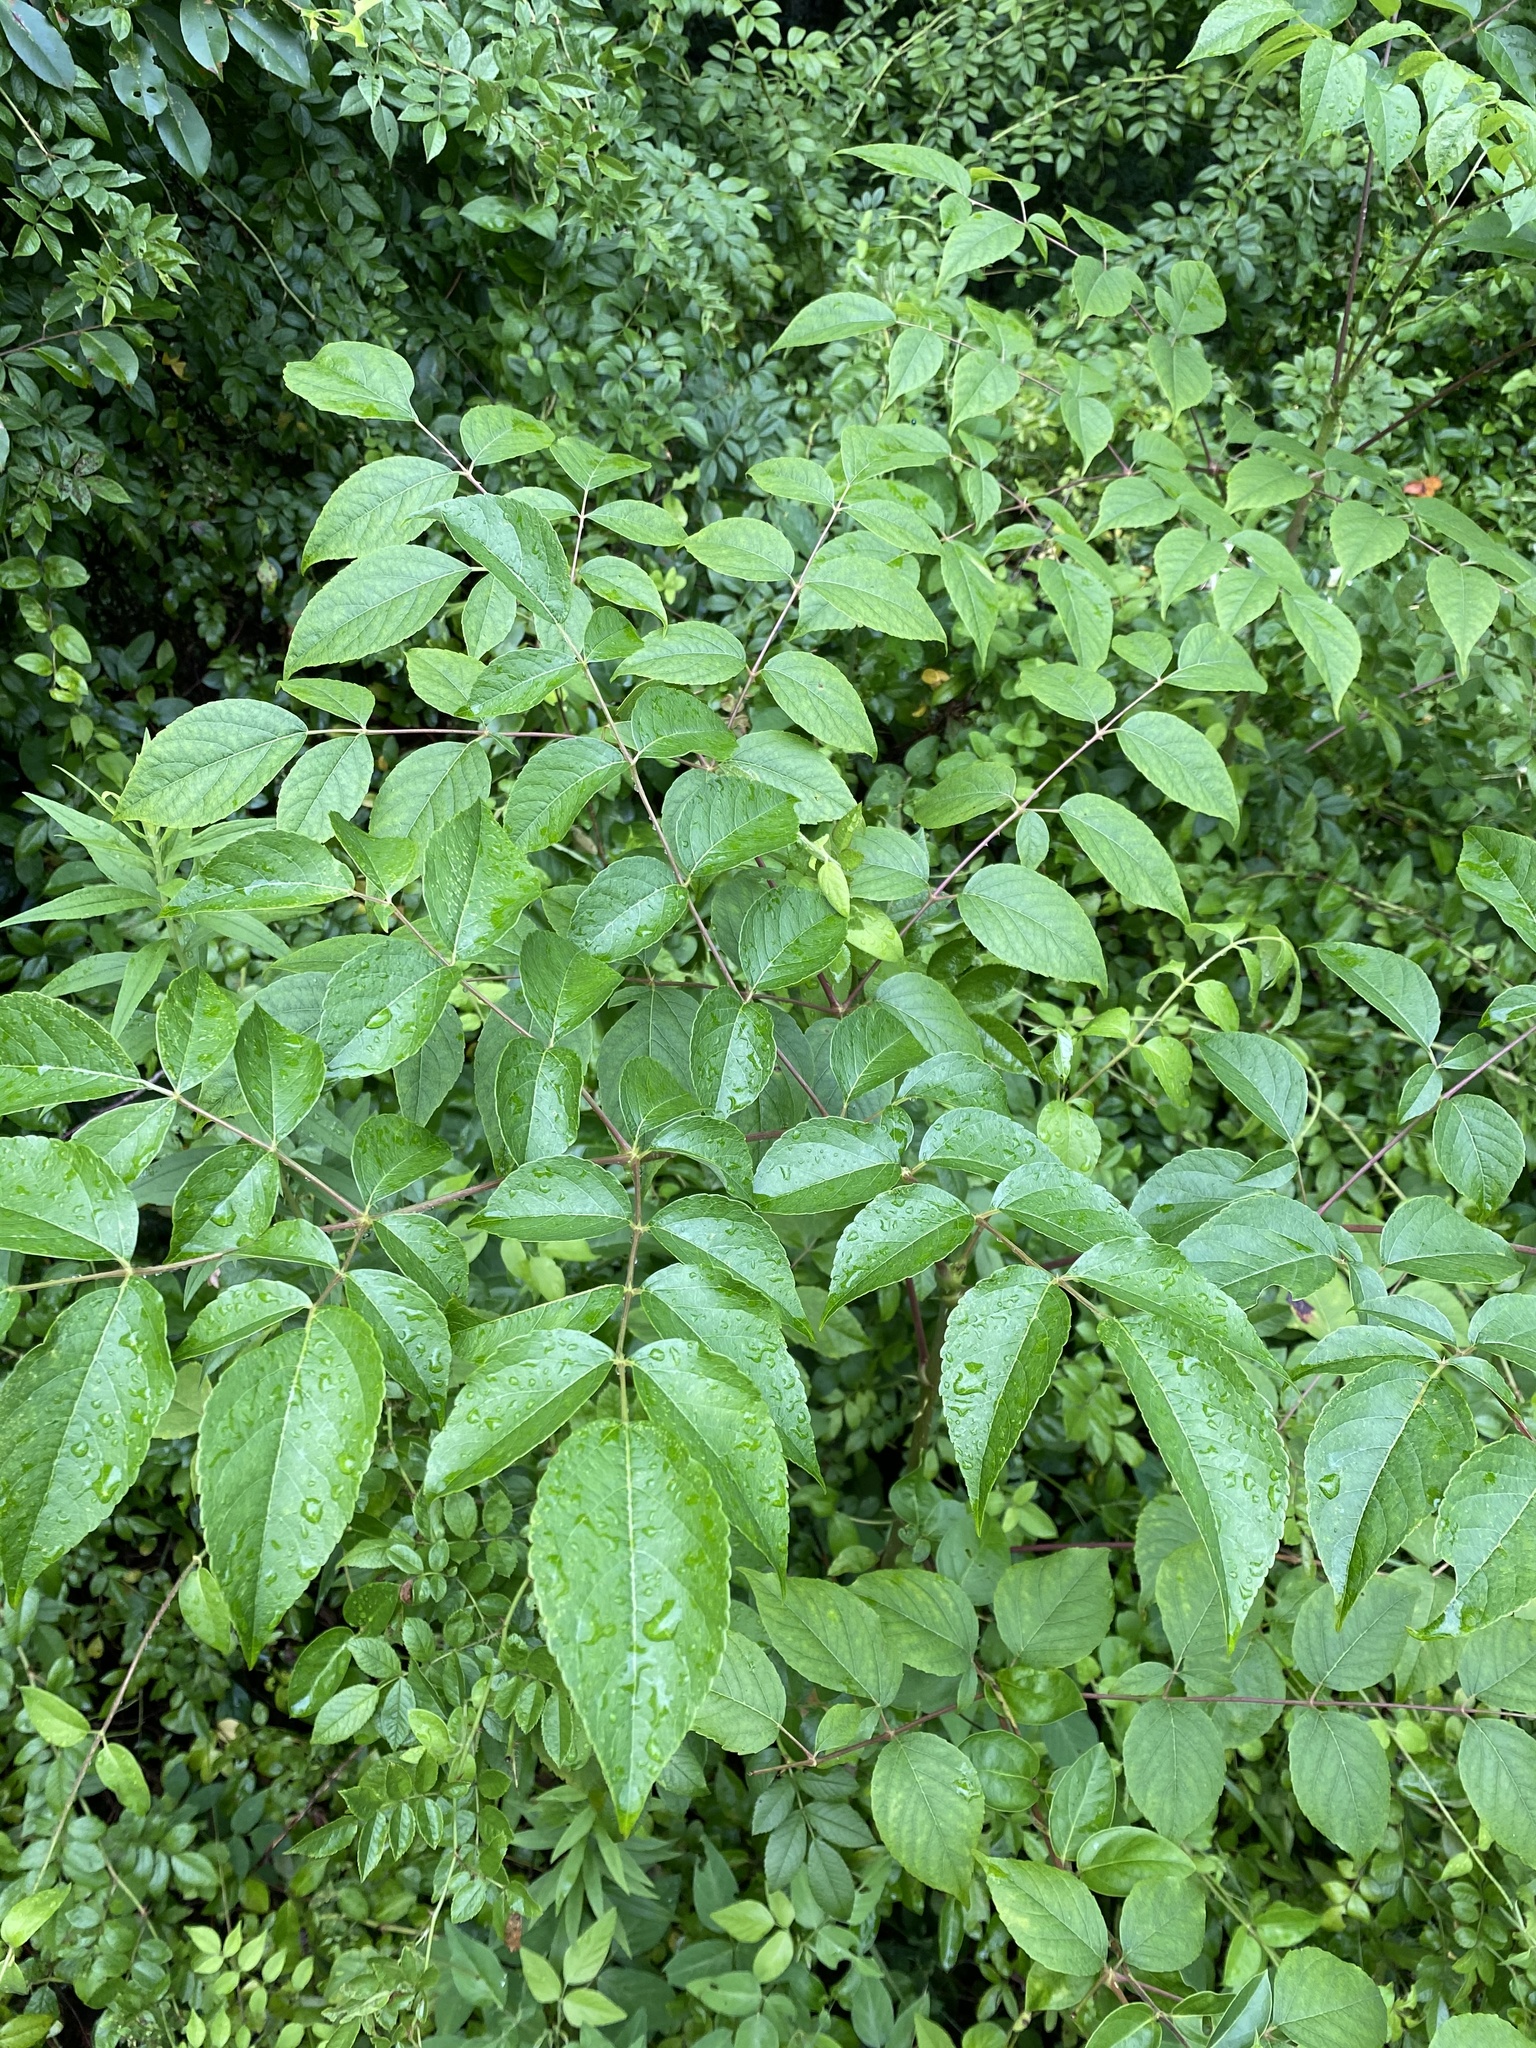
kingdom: Plantae
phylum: Tracheophyta
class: Magnoliopsida
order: Apiales
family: Araliaceae
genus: Aralia
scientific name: Aralia spinosa
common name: Hercules'-club
